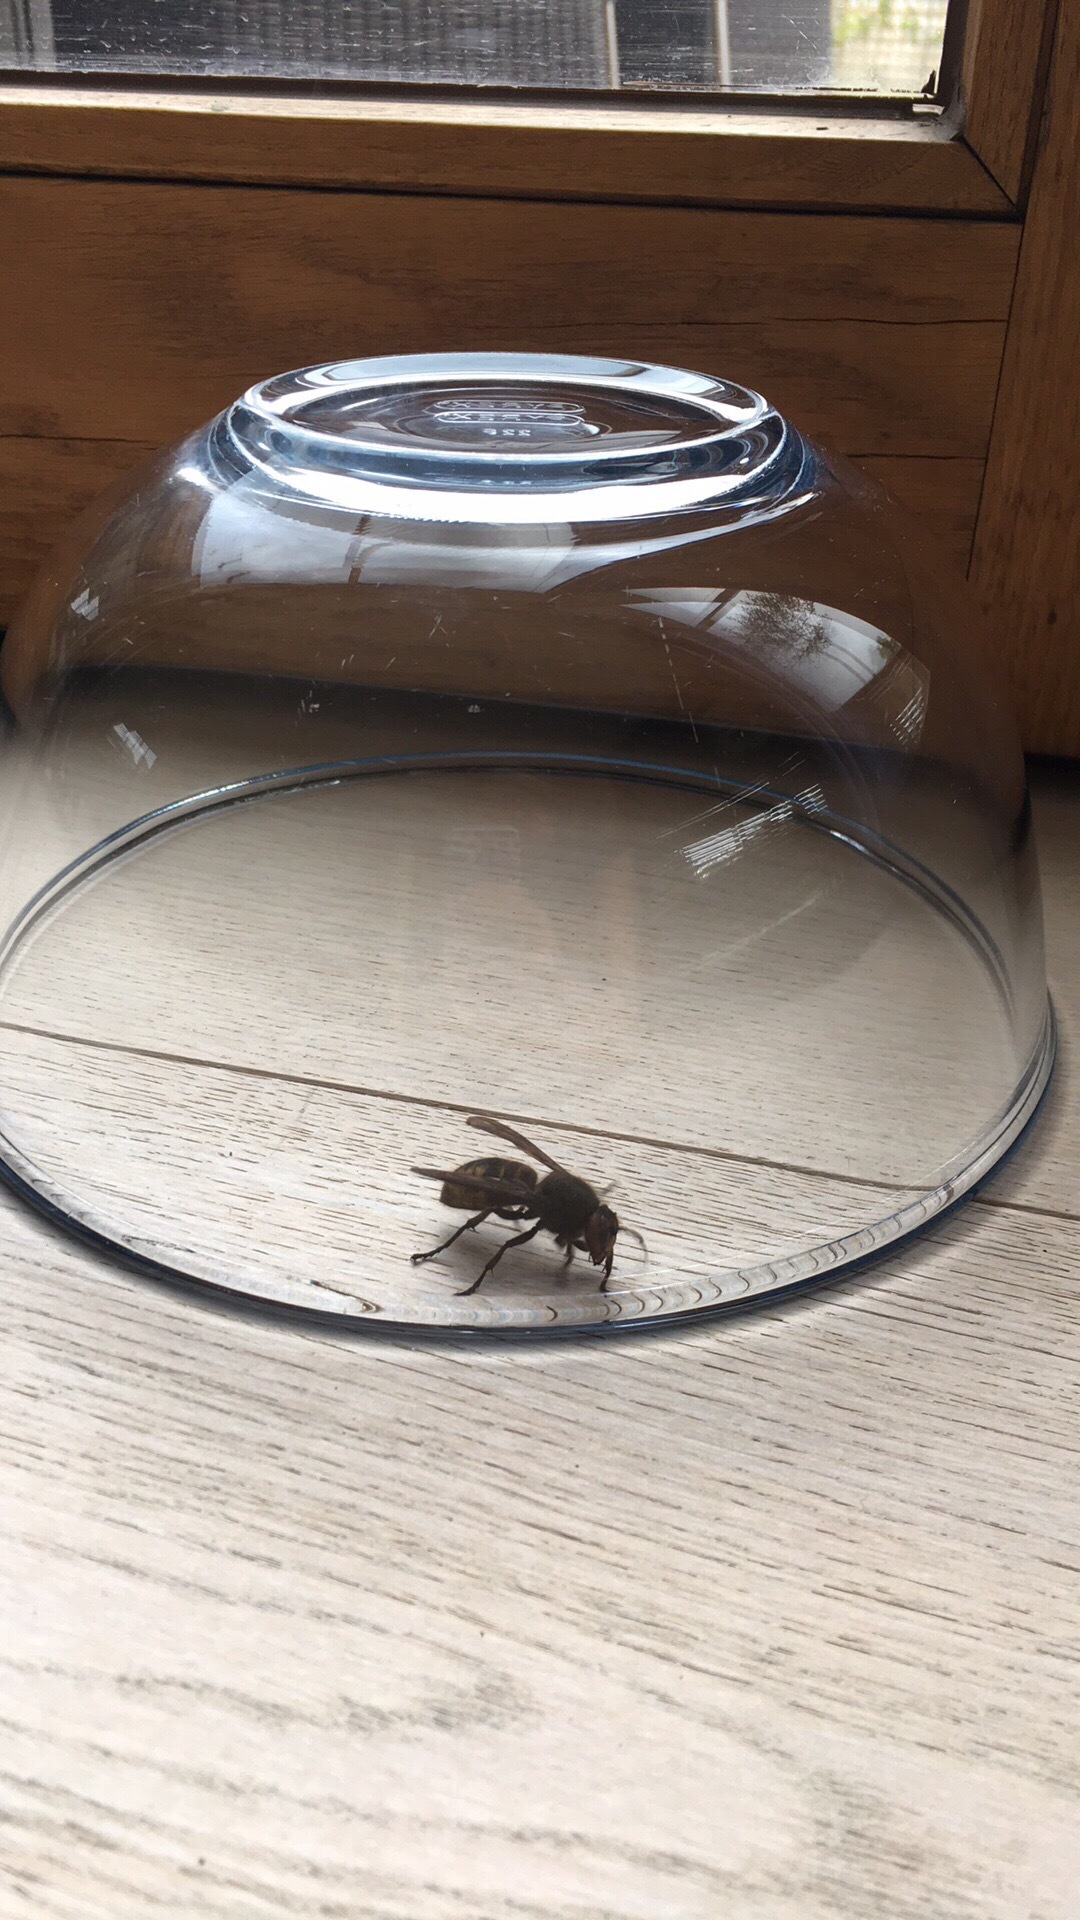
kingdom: Animalia
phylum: Arthropoda
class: Insecta
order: Hymenoptera
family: Vespidae
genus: Vespa
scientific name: Vespa crabro
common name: Hornet
